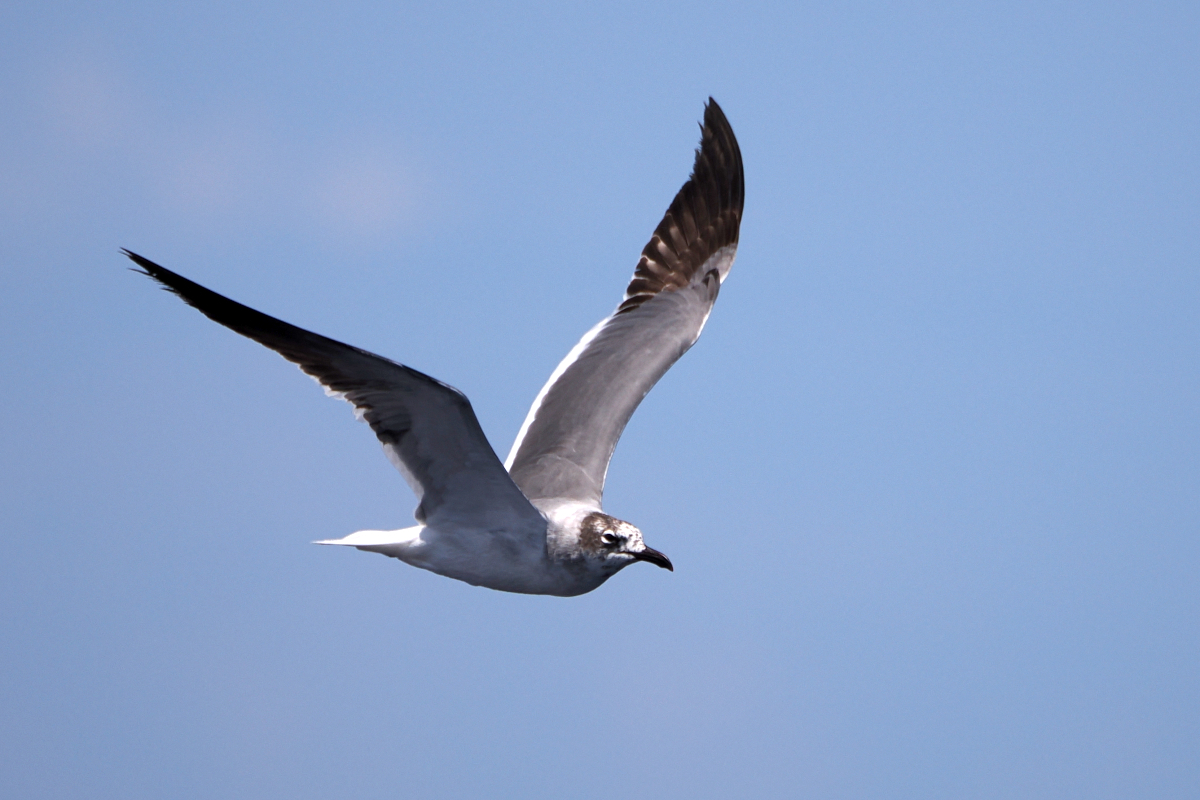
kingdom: Animalia
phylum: Chordata
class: Aves
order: Charadriiformes
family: Laridae
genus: Leucophaeus
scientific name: Leucophaeus atricilla
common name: Laughing gull
